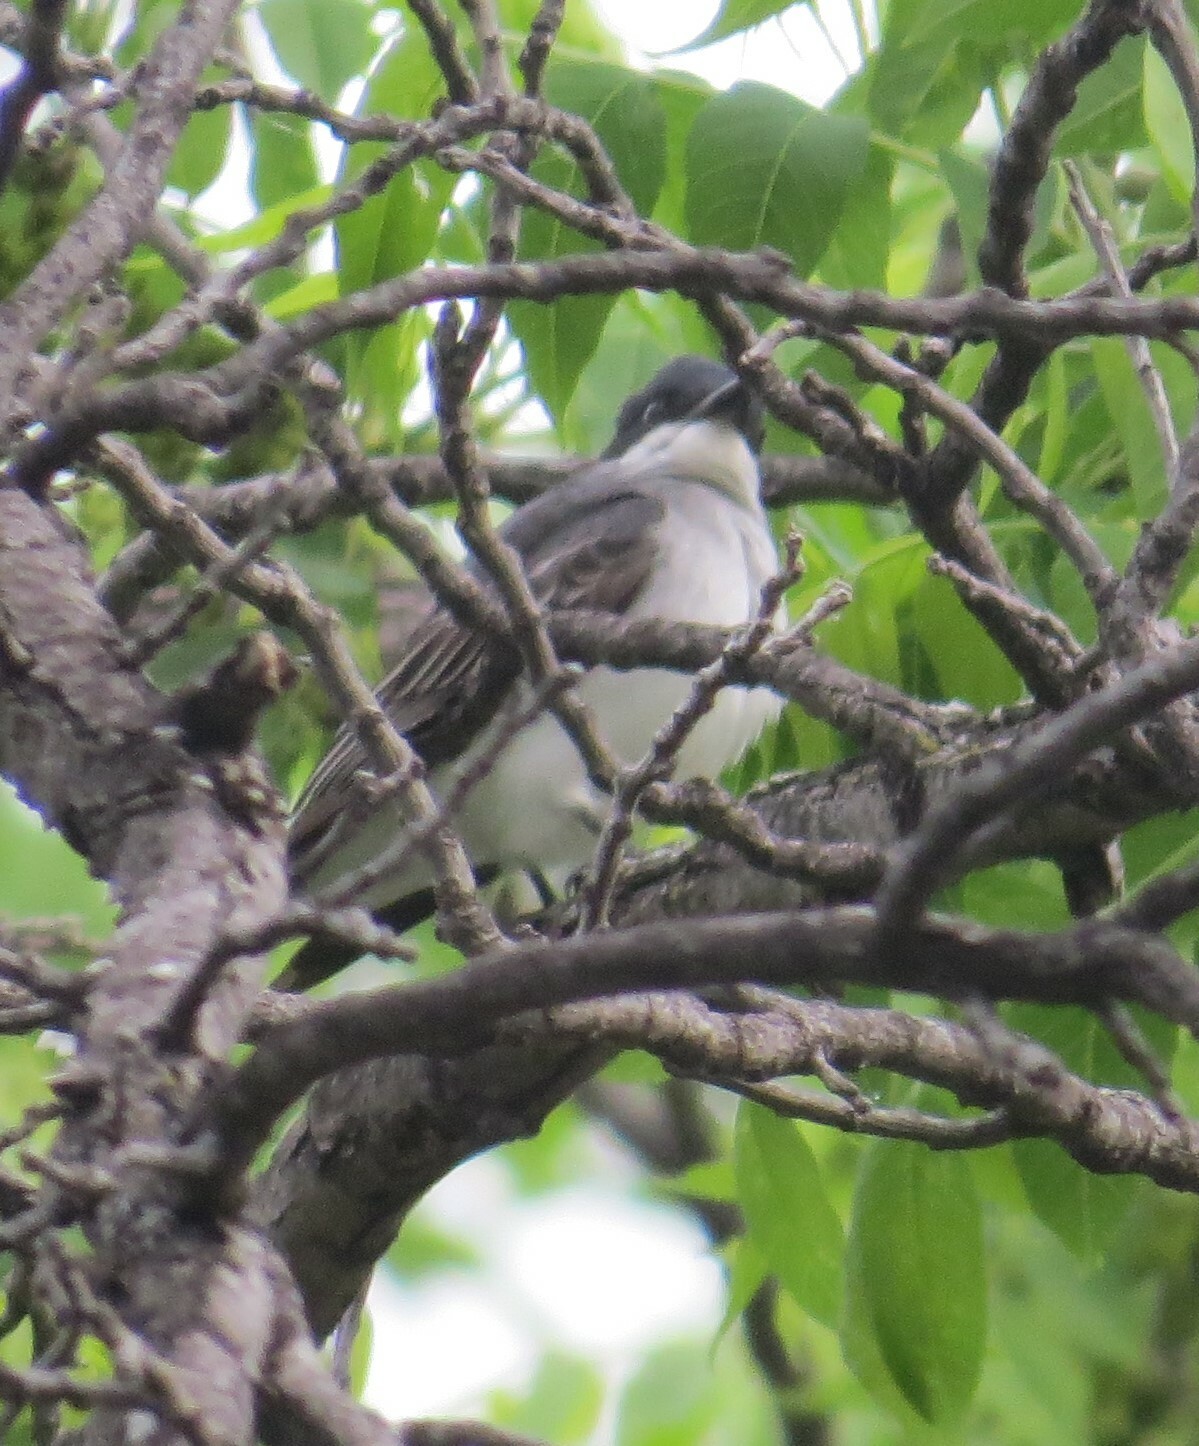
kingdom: Animalia
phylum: Chordata
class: Aves
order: Passeriformes
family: Tyrannidae
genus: Tyrannus
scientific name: Tyrannus tyrannus
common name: Eastern kingbird
